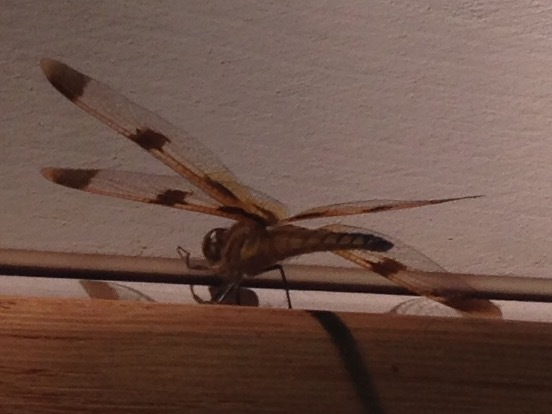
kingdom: Animalia
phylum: Arthropoda
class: Insecta
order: Odonata
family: Libellulidae
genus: Libellula
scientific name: Libellula semifasciata
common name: Painted skimmer
